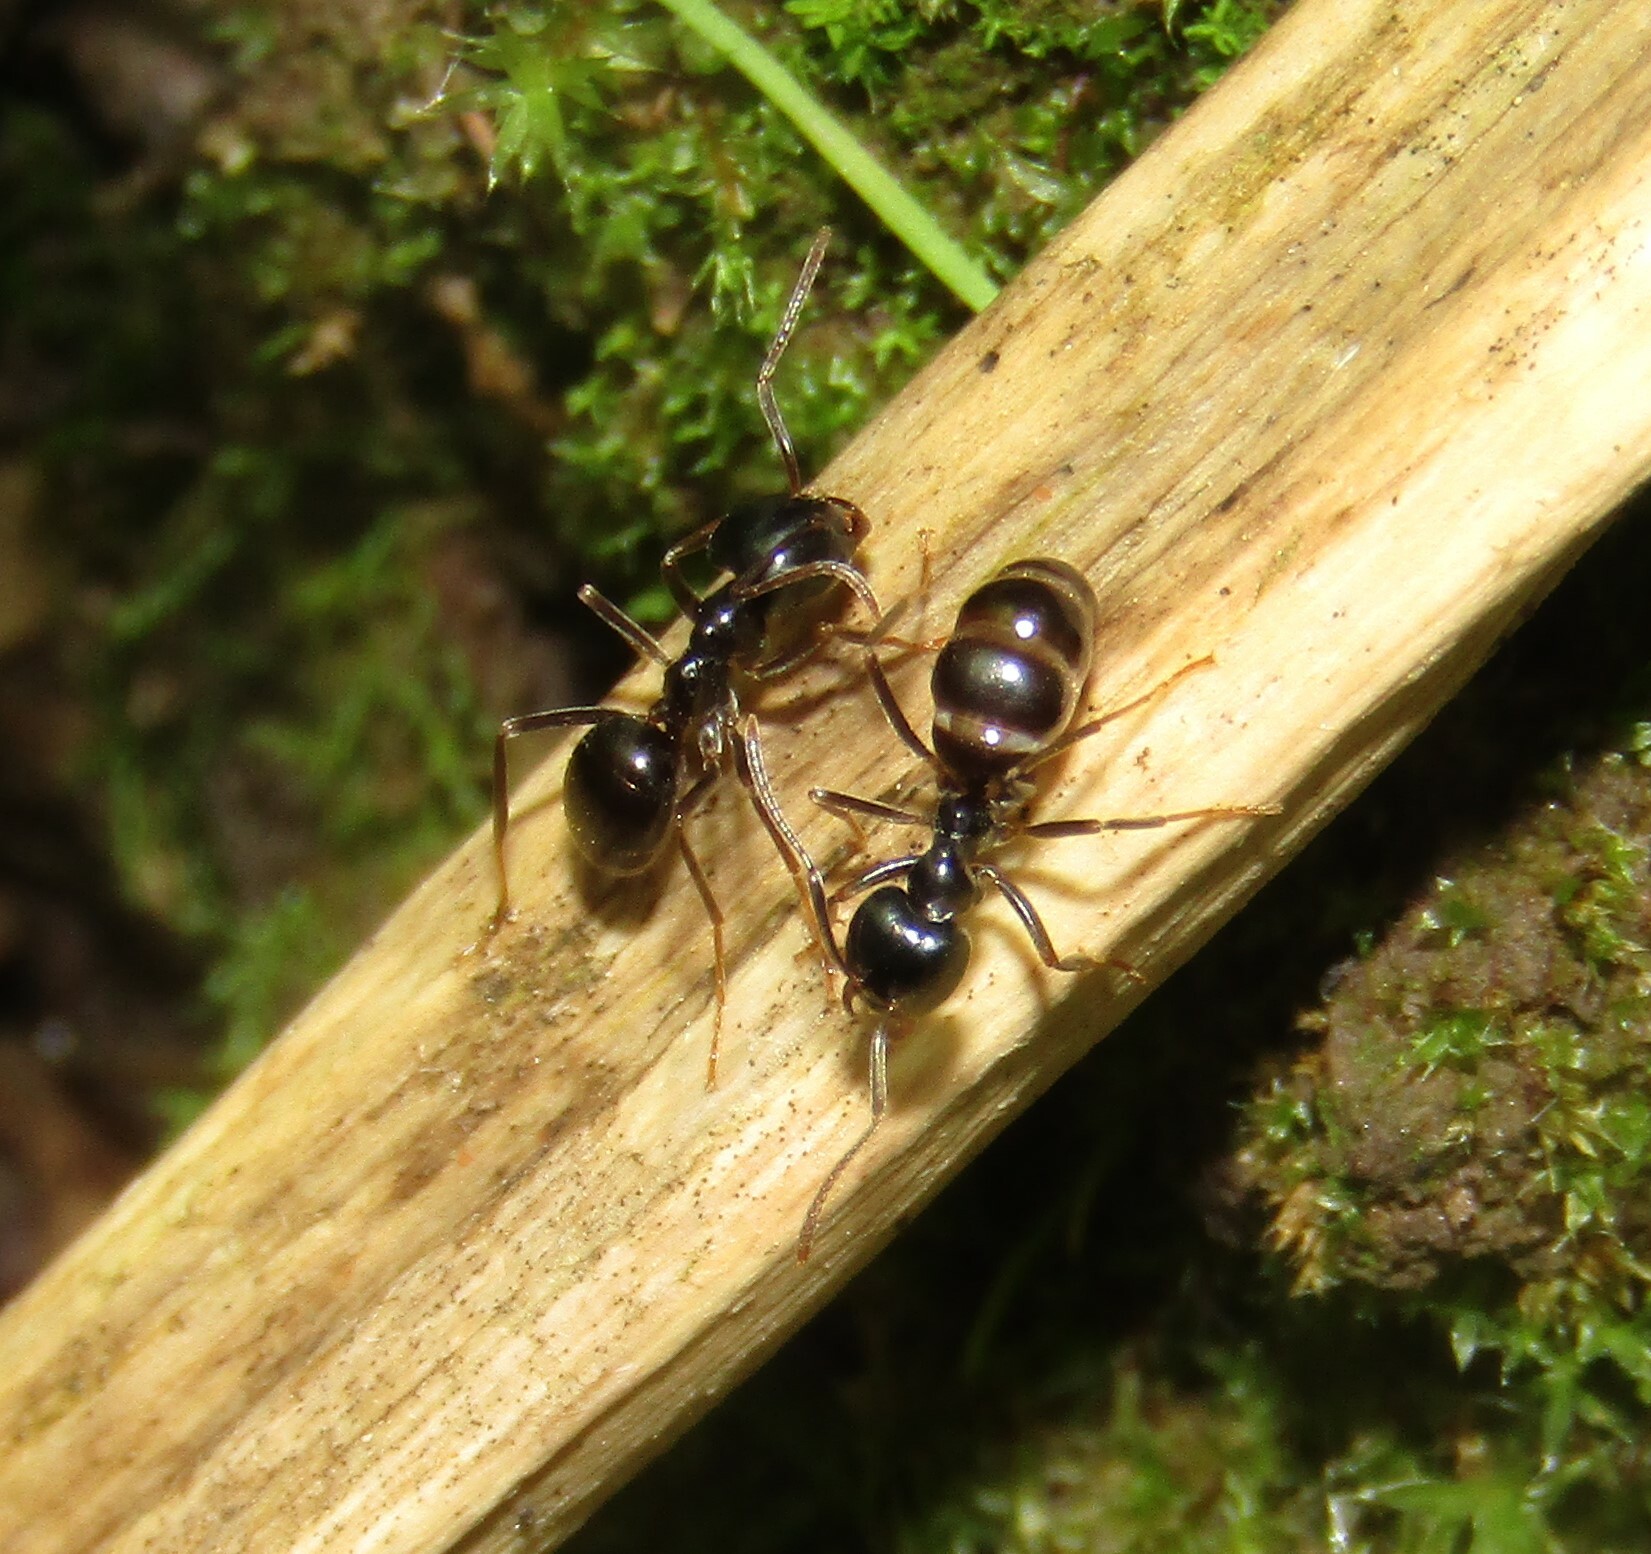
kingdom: Animalia
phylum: Arthropoda
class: Insecta
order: Hymenoptera
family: Formicidae
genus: Lasius
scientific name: Lasius fuliginosus
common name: Jet ant
